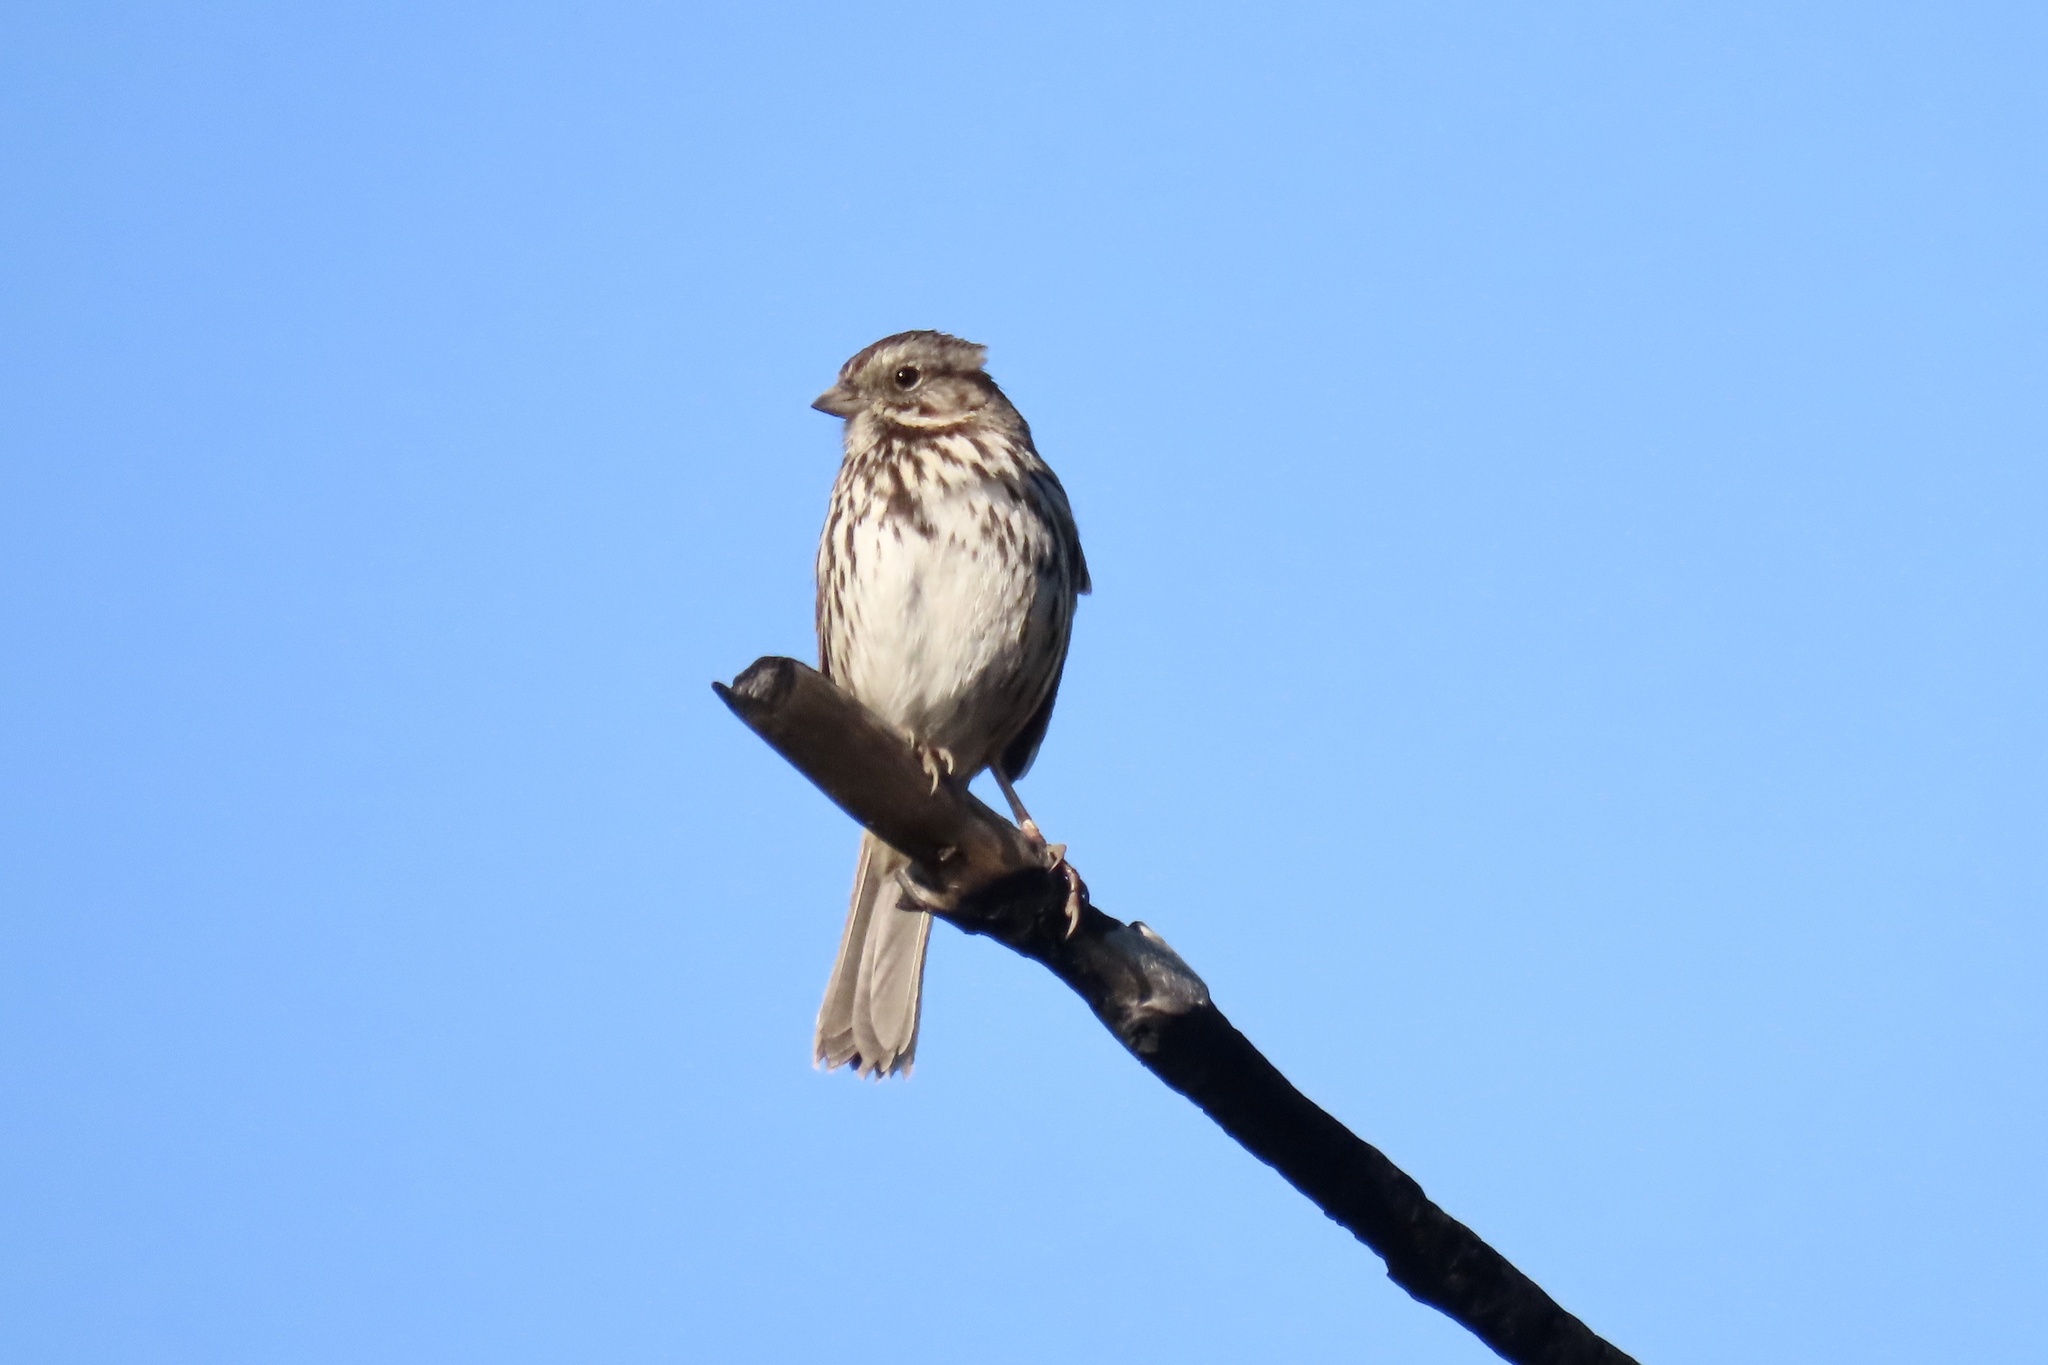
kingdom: Animalia
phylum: Chordata
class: Aves
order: Passeriformes
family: Passerellidae
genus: Melospiza
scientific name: Melospiza melodia
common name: Song sparrow
